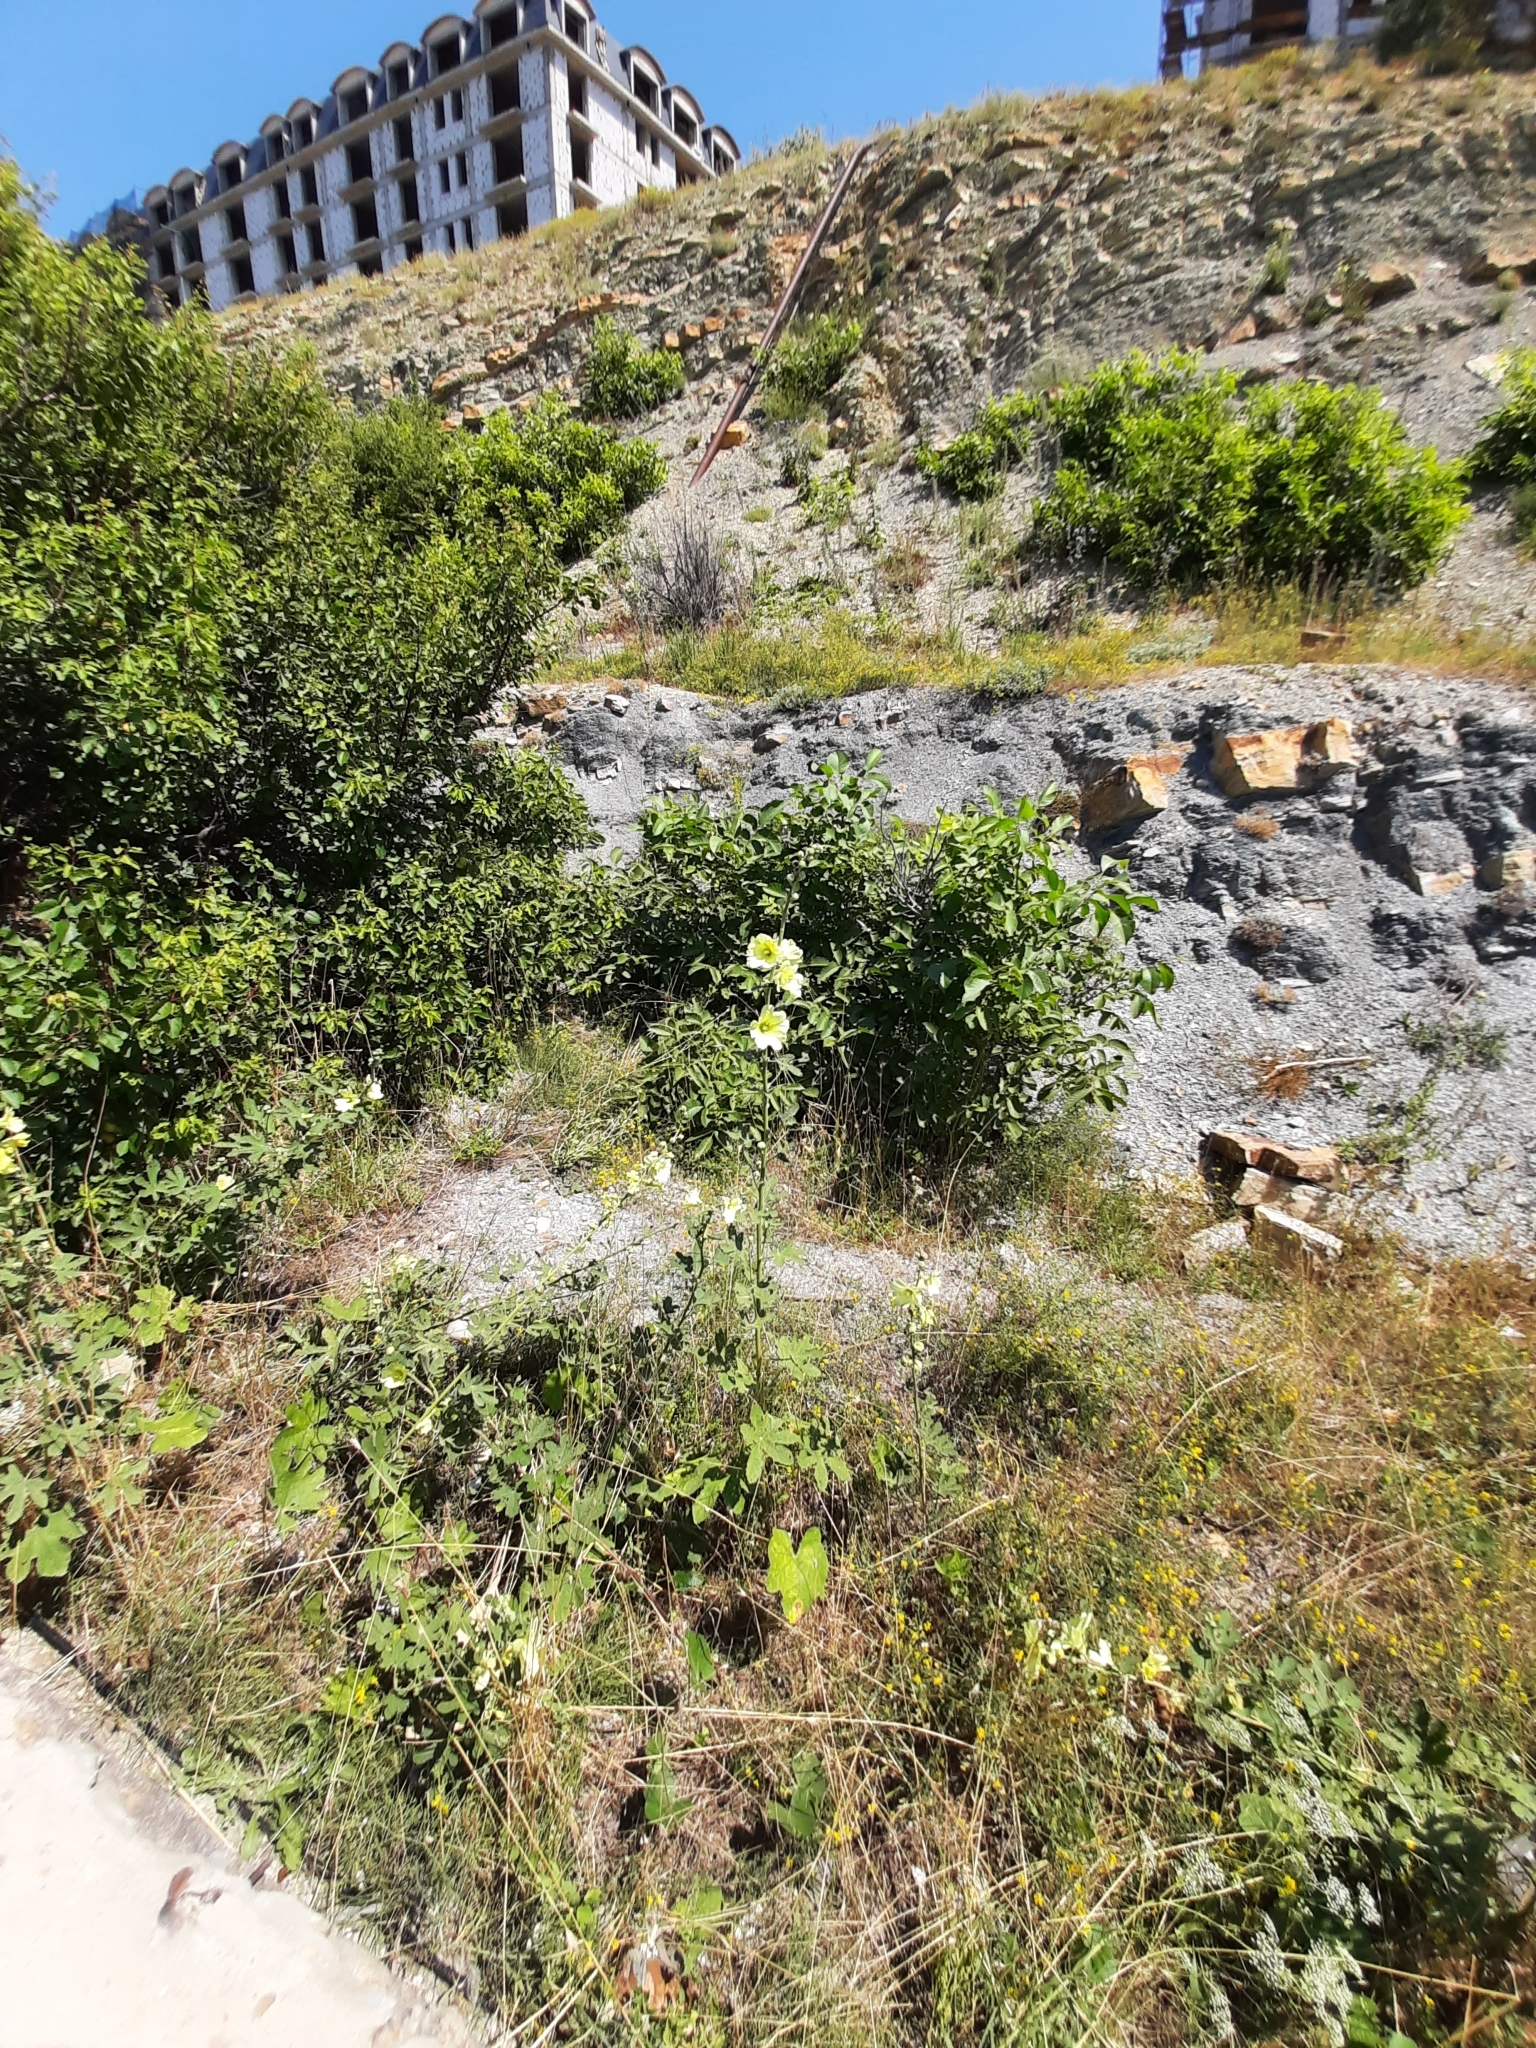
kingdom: Plantae
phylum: Tracheophyta
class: Magnoliopsida
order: Malvales
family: Malvaceae
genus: Alcea
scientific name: Alcea rugosa
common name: Russian hollyhock
